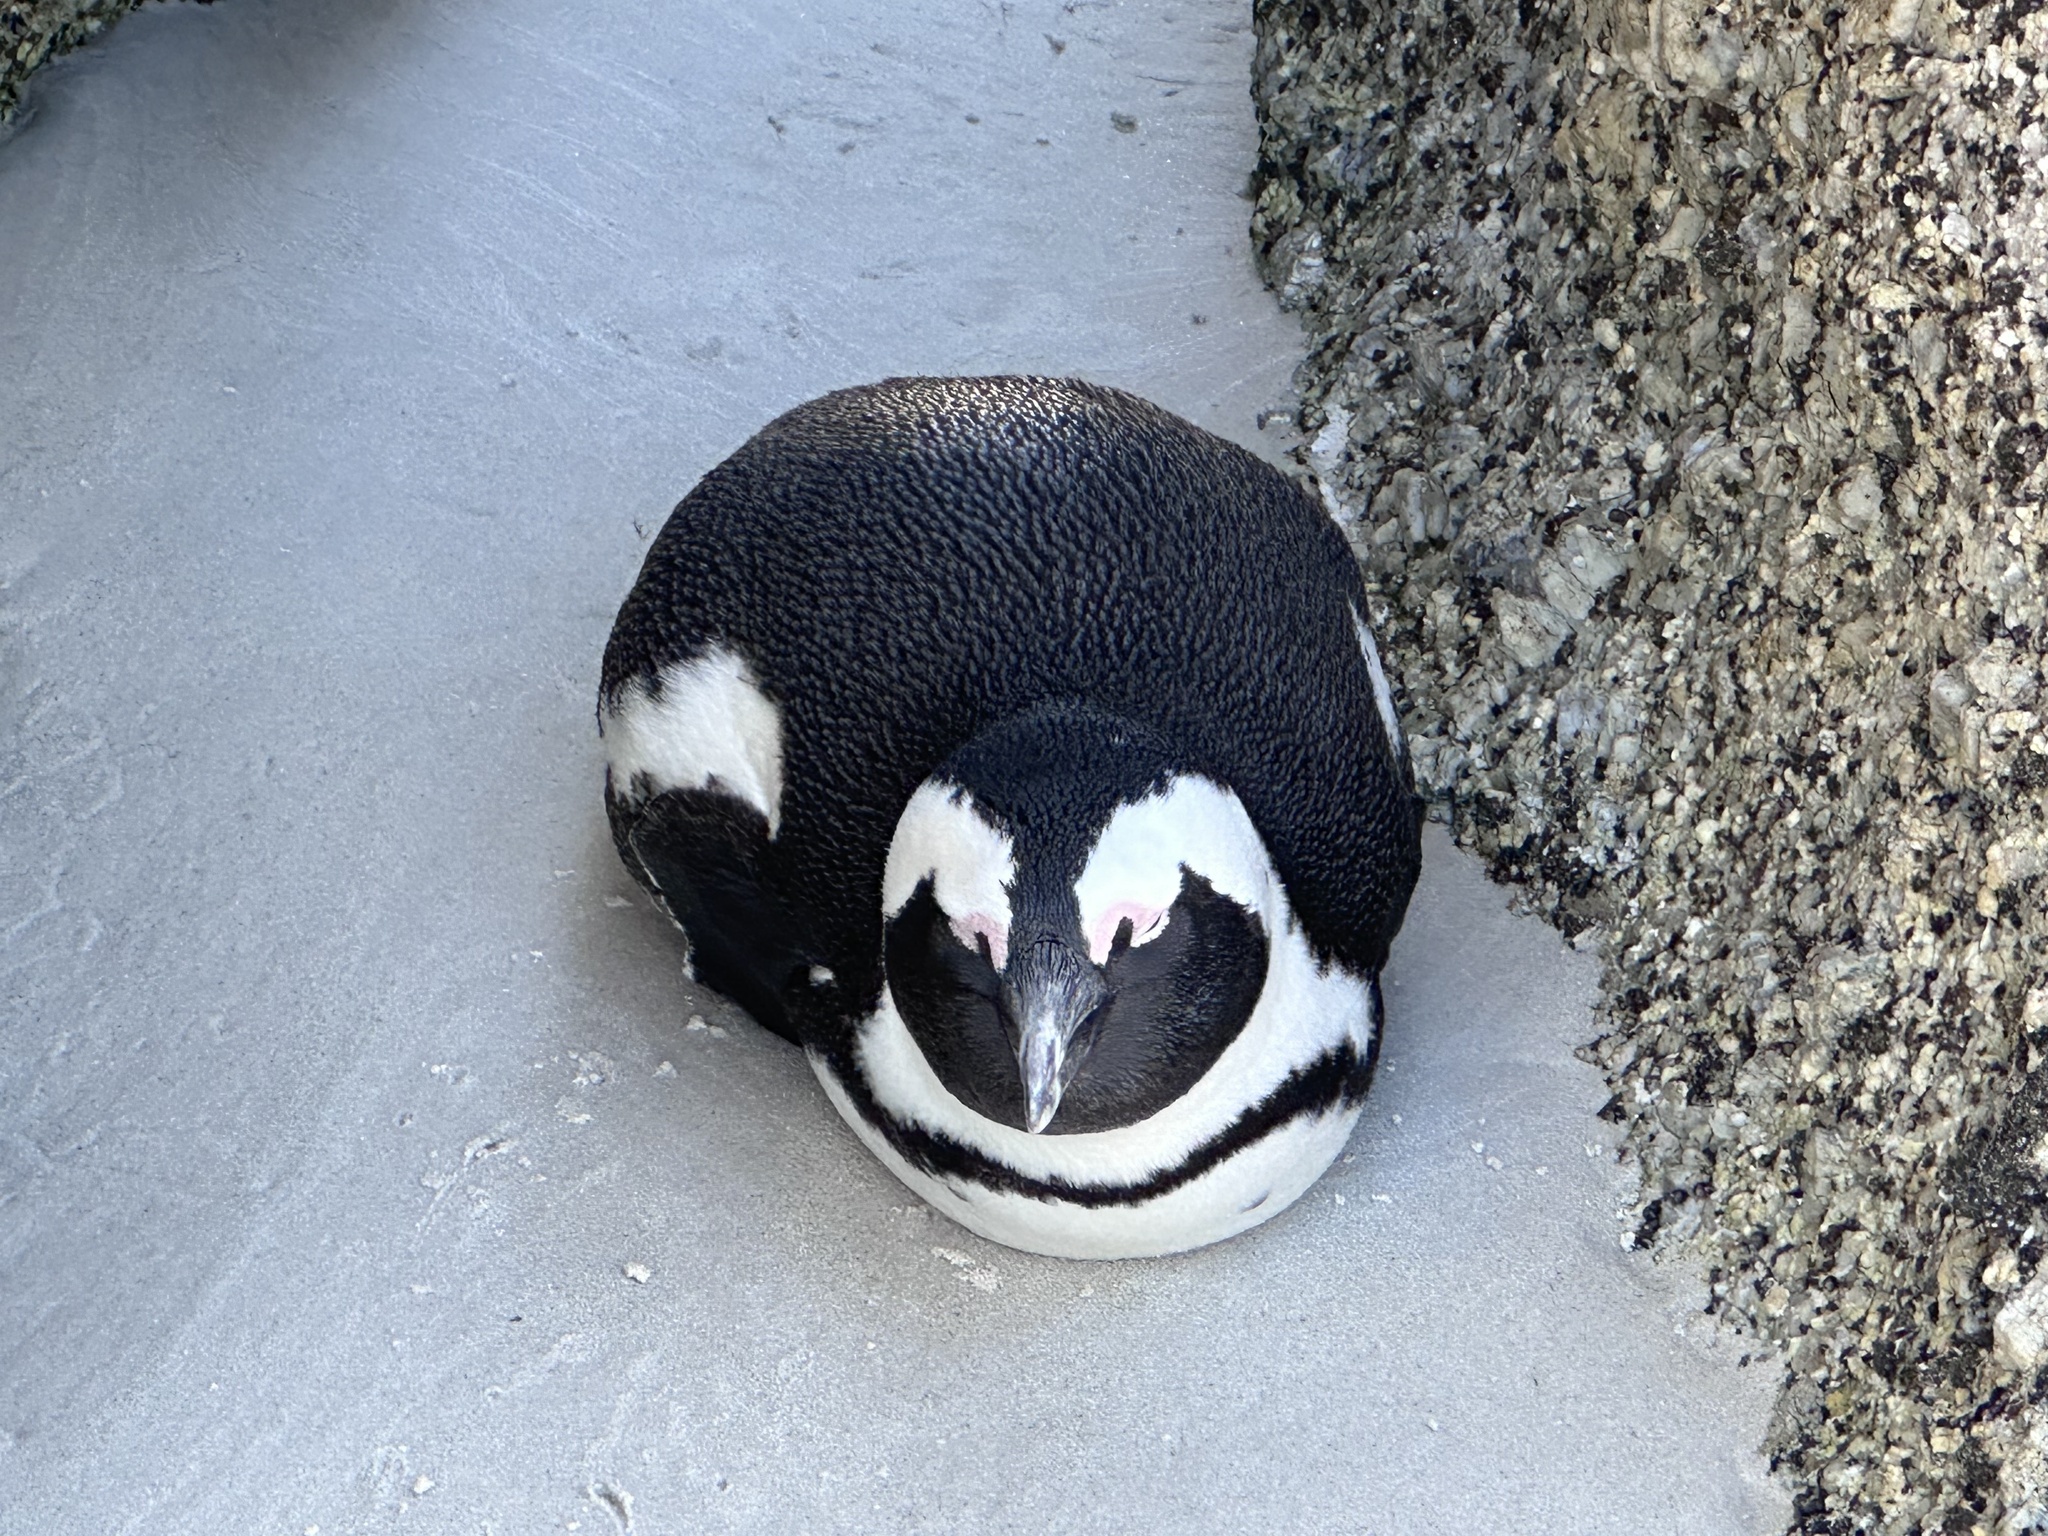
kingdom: Animalia
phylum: Chordata
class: Aves
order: Sphenisciformes
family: Spheniscidae
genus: Spheniscus
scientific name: Spheniscus demersus
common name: African penguin
